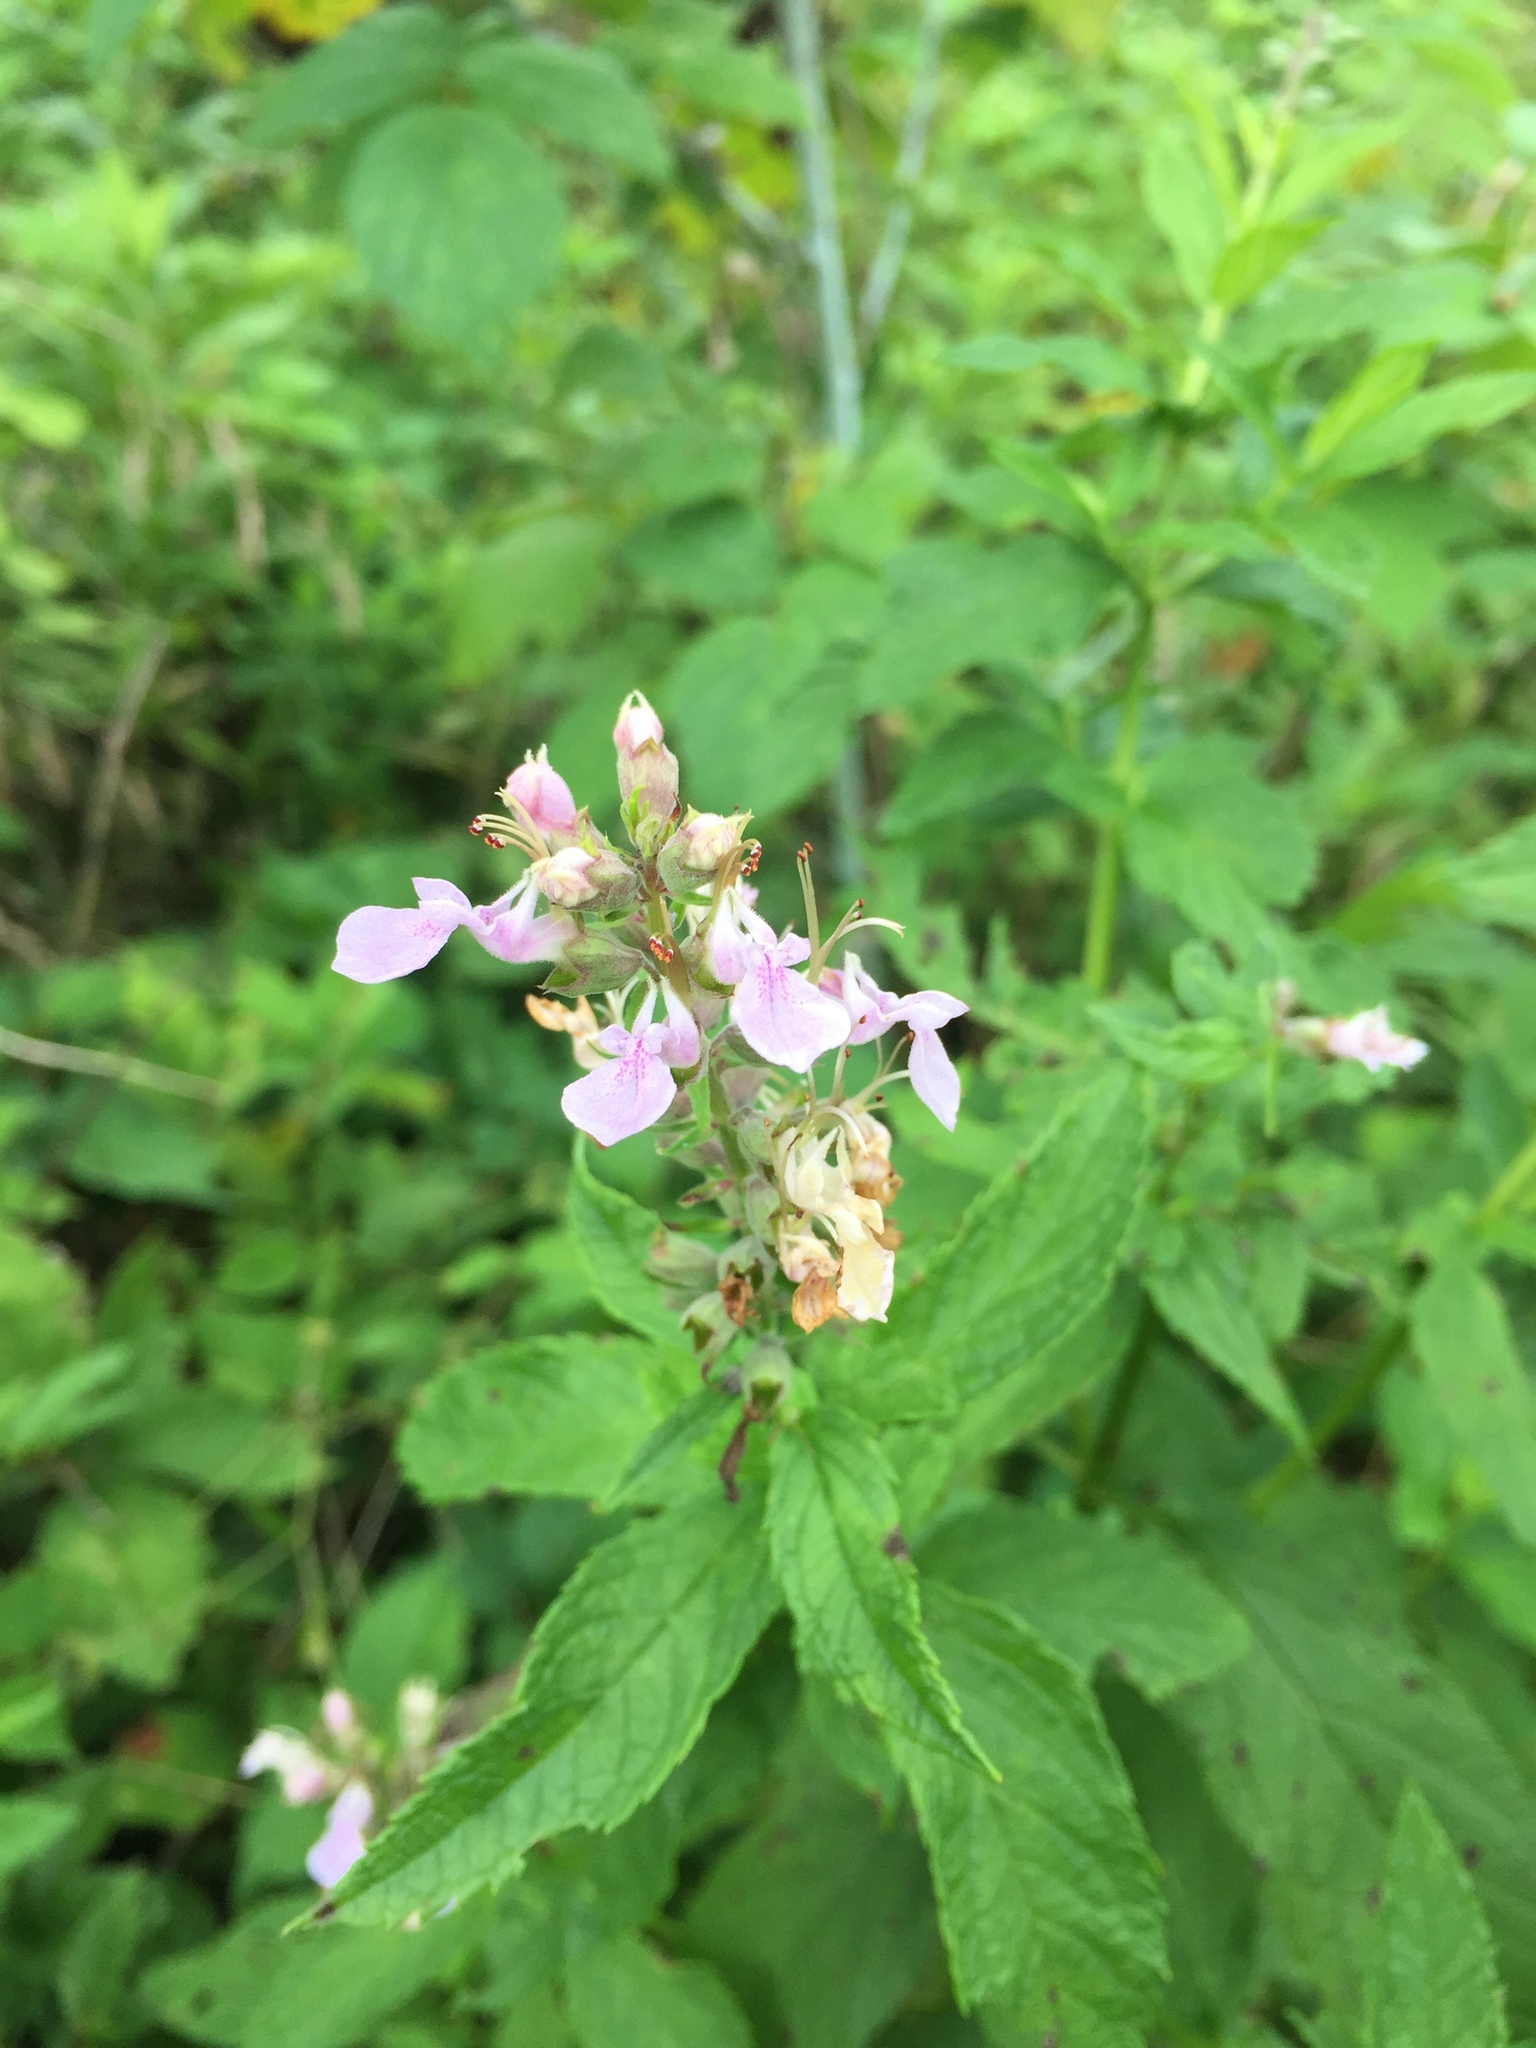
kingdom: Plantae
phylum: Tracheophyta
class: Magnoliopsida
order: Lamiales
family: Lamiaceae
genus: Teucrium
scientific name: Teucrium canadense
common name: American germander
